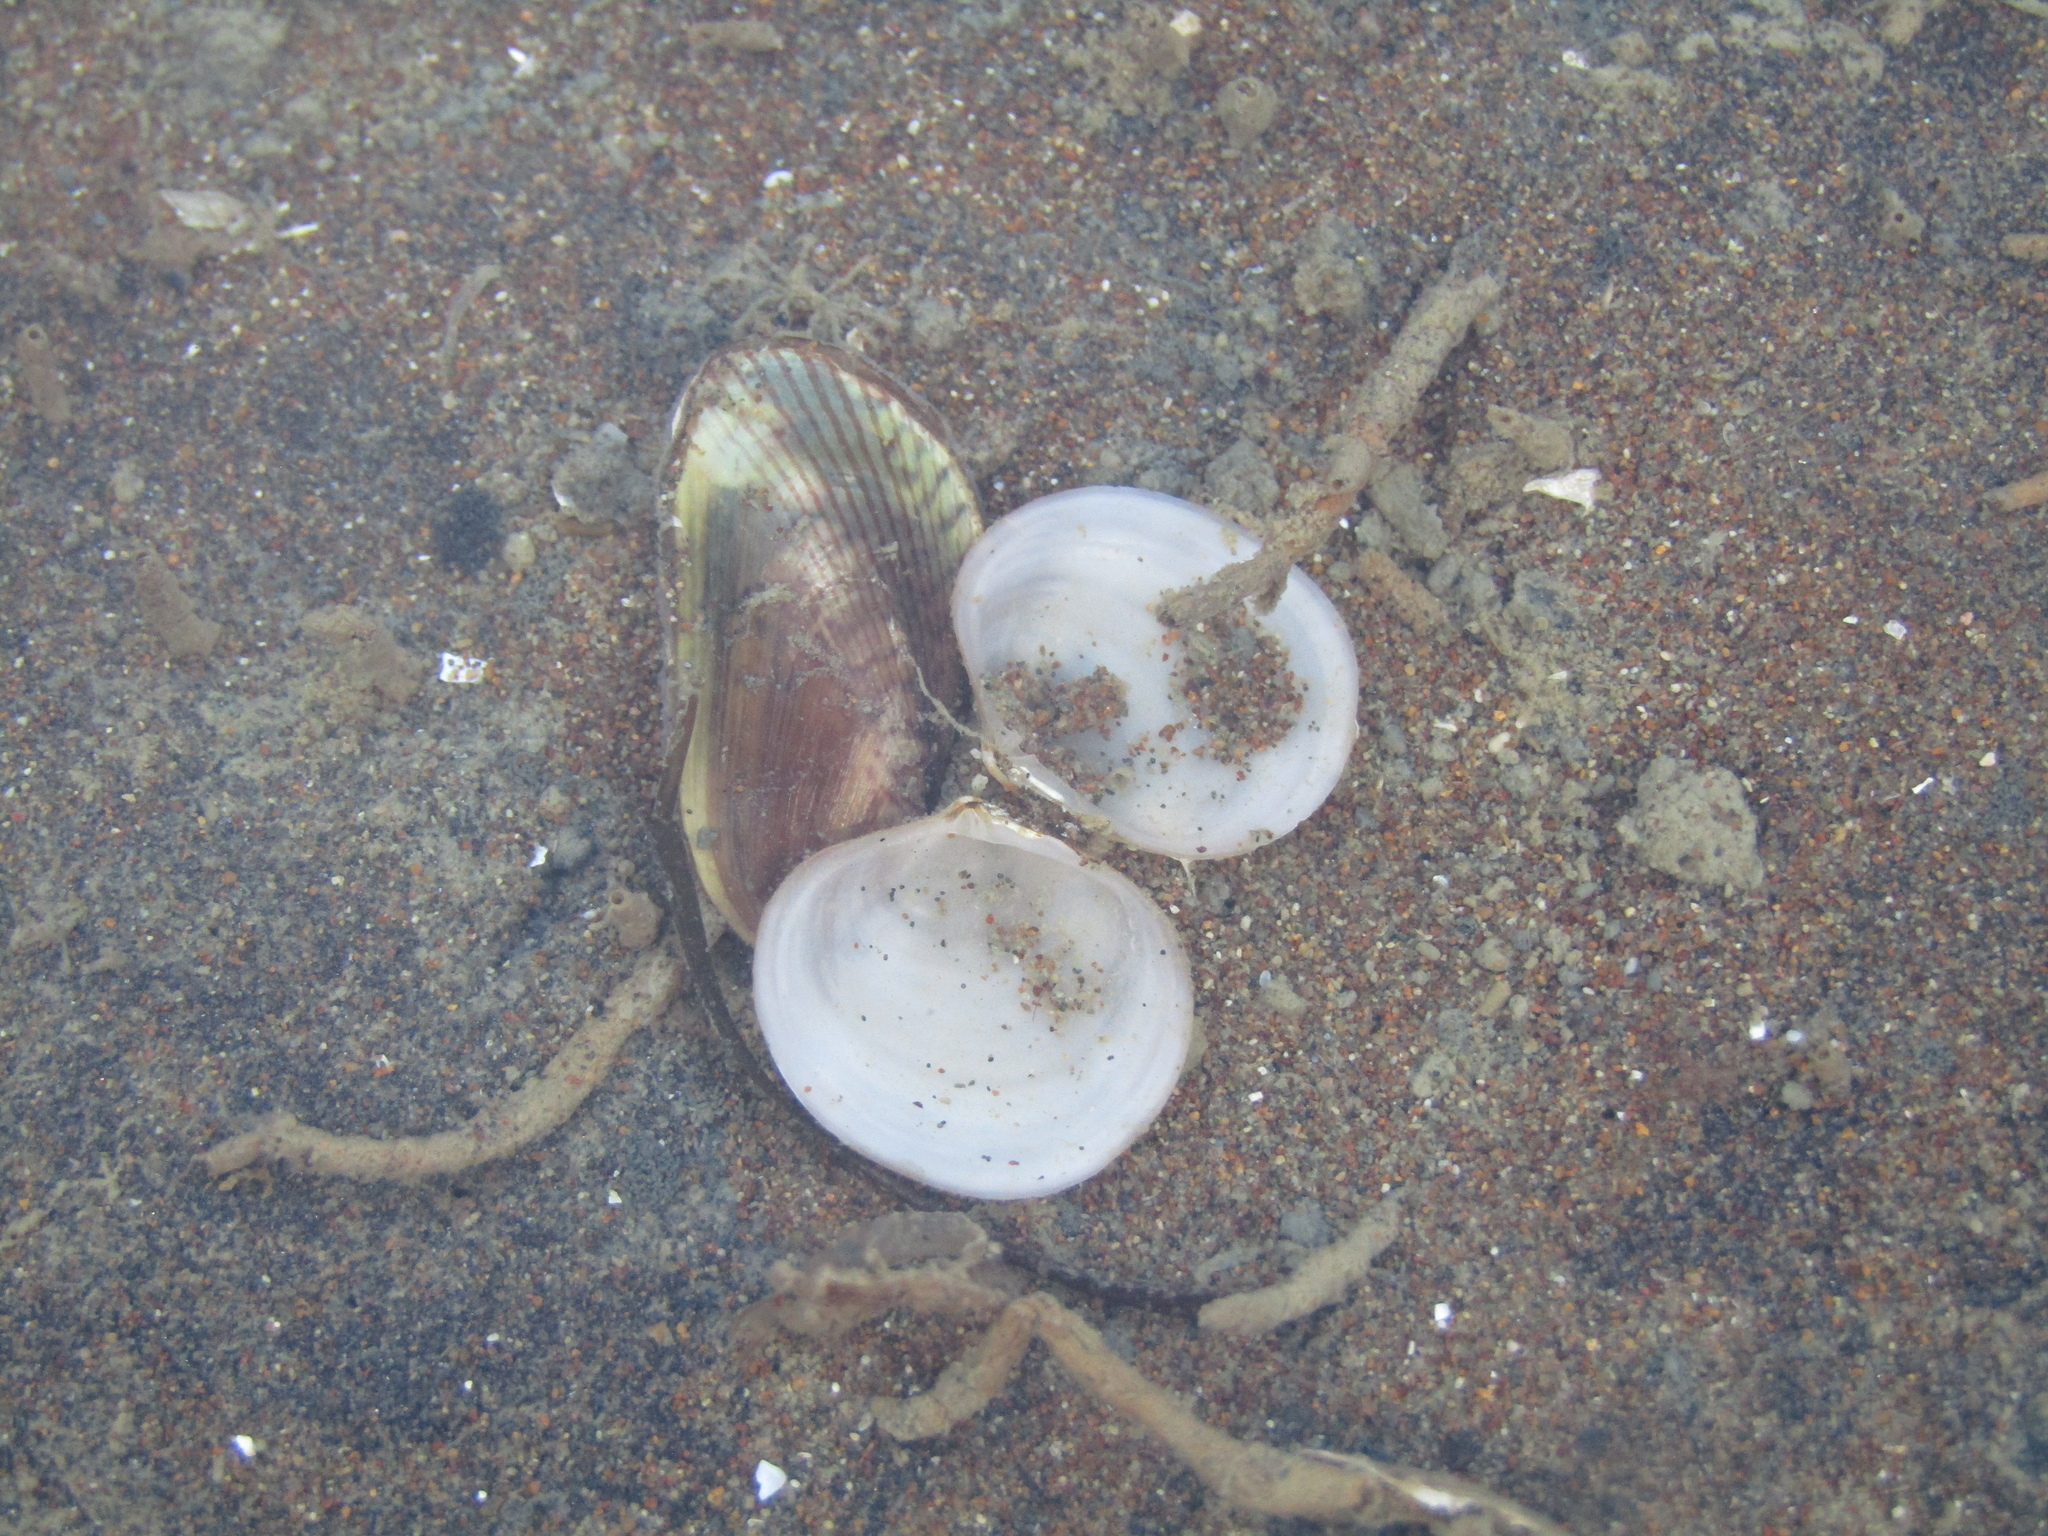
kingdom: Animalia
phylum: Mollusca
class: Bivalvia
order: Venerida
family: Ungulinidae
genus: Zemysia
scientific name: Zemysia zelandica
